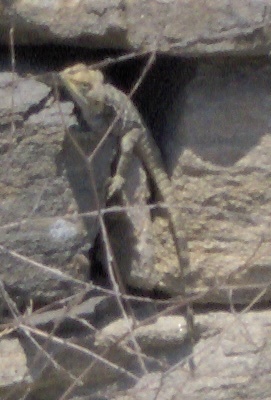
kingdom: Animalia
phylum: Chordata
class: Squamata
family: Agamidae
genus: Stellagama
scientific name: Stellagama stellio
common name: Starred agama
